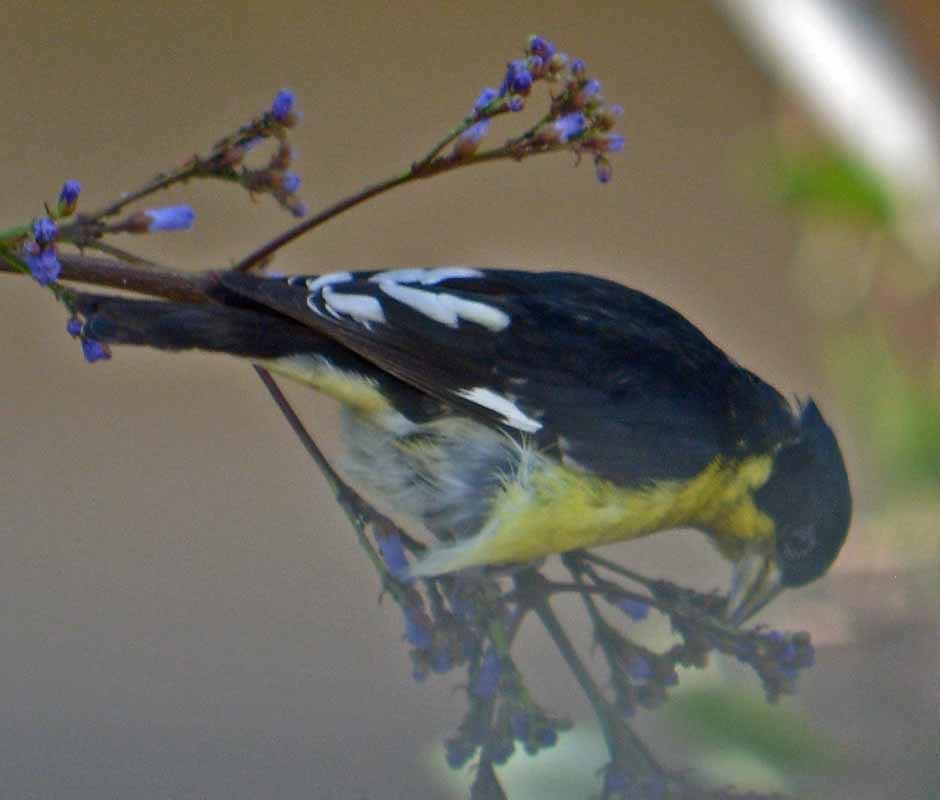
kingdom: Animalia
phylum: Chordata
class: Aves
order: Passeriformes
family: Fringillidae
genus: Spinus
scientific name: Spinus psaltria
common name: Lesser goldfinch
